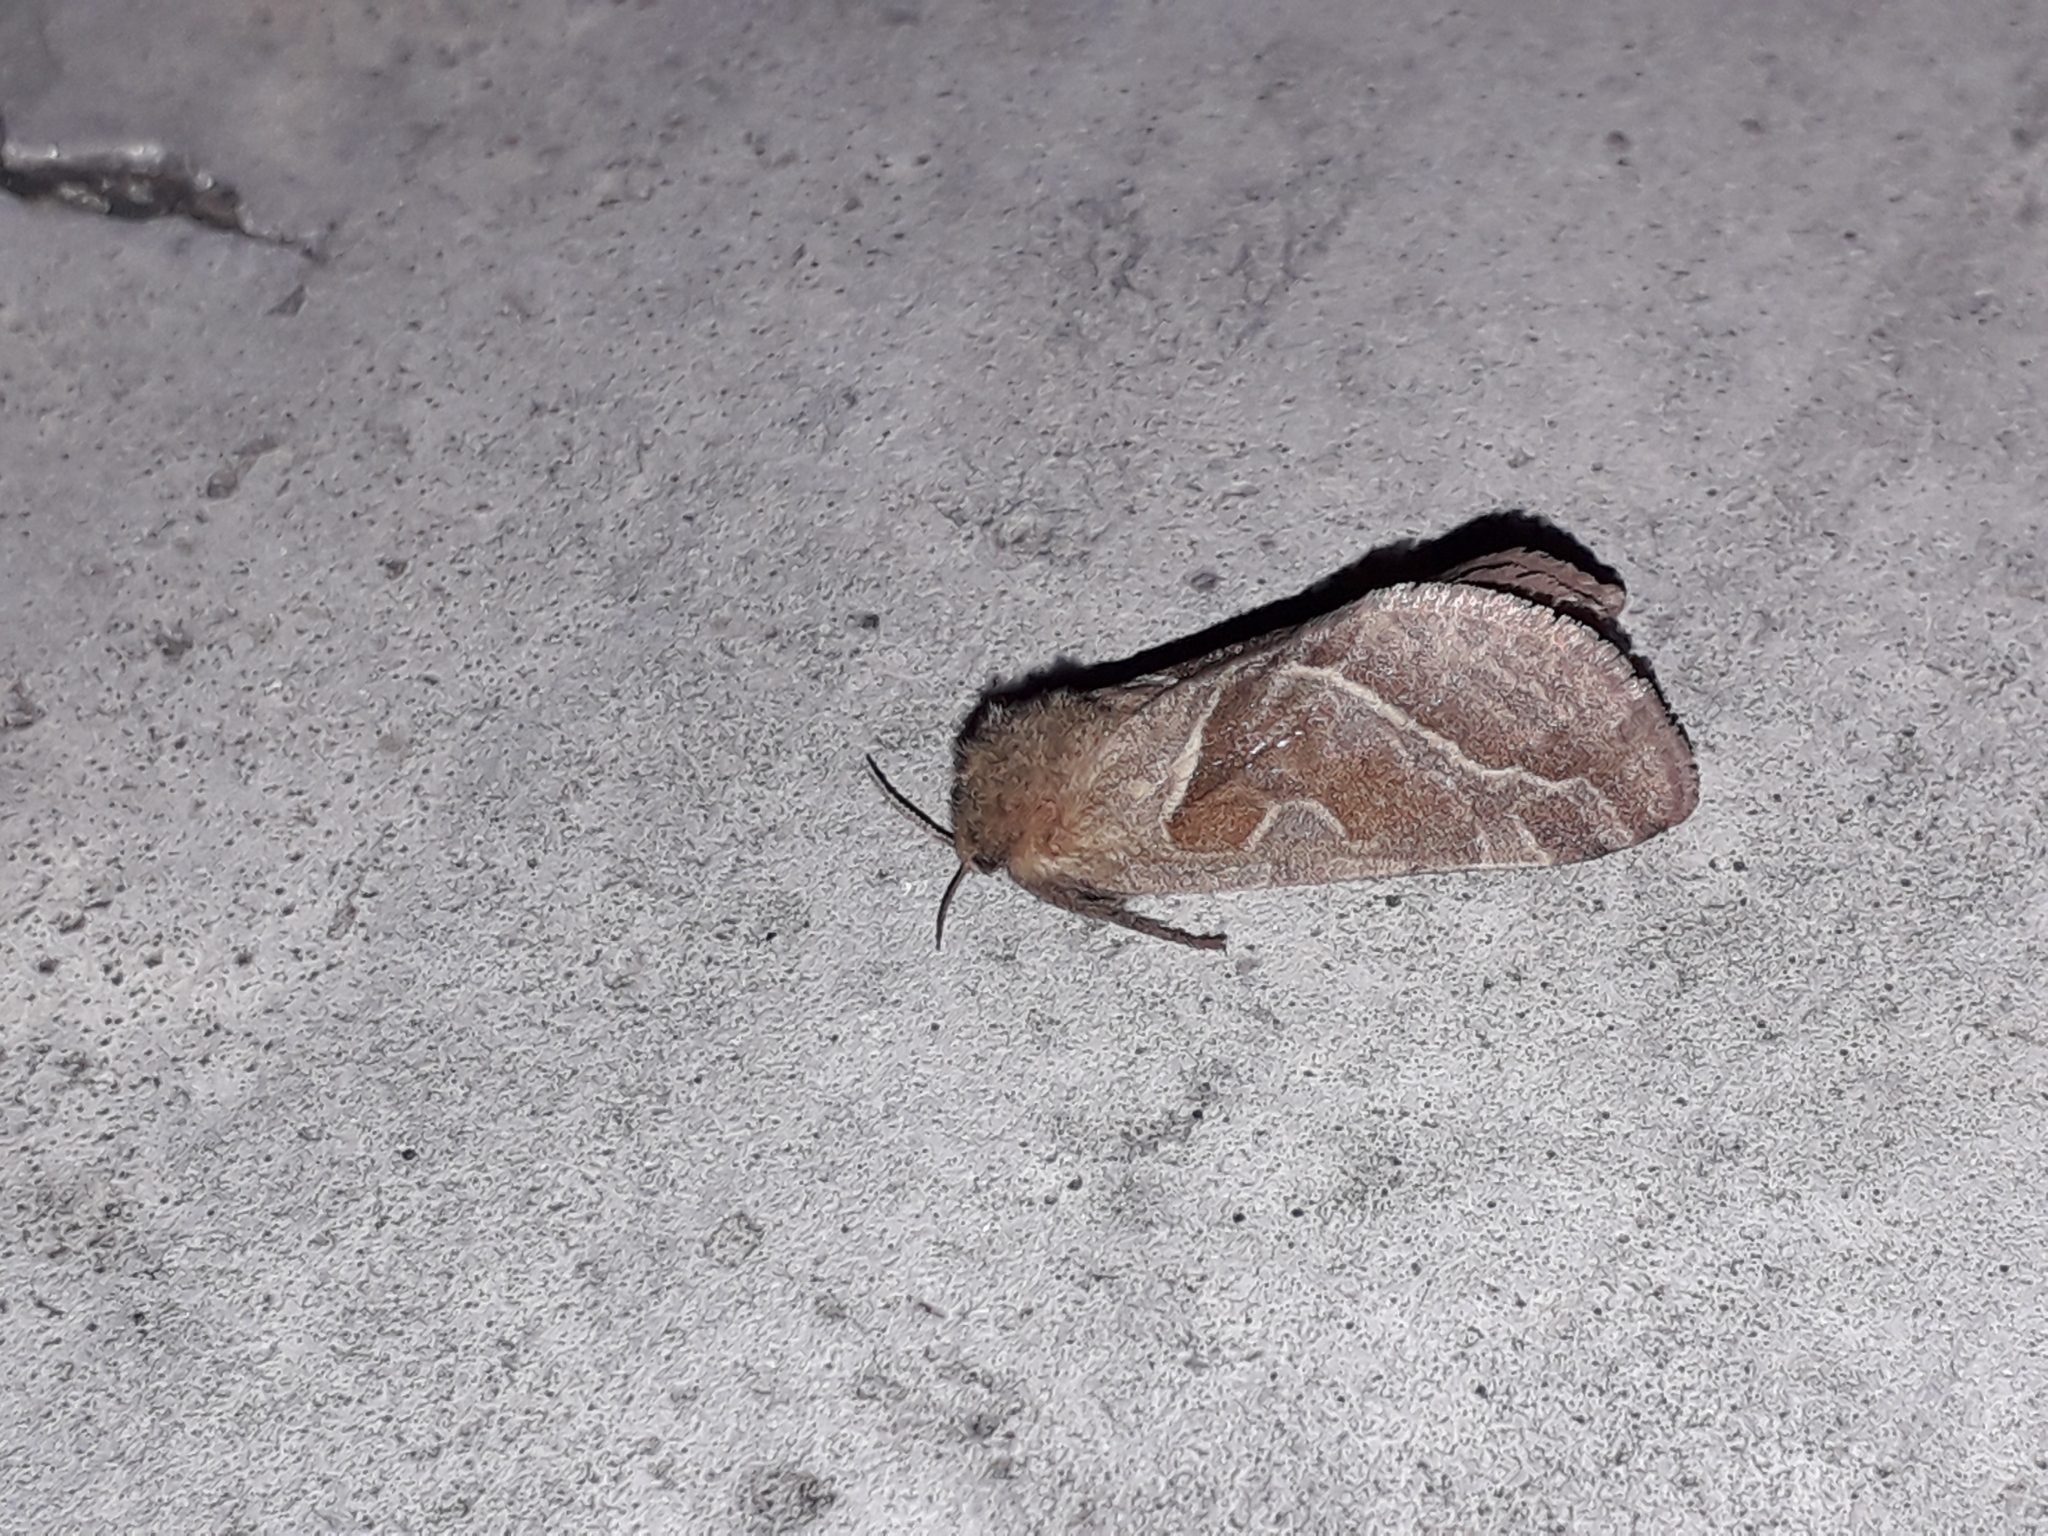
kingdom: Animalia
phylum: Arthropoda
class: Insecta
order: Lepidoptera
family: Hepialidae
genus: Triodia
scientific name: Triodia sylvina
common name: Orange swift
